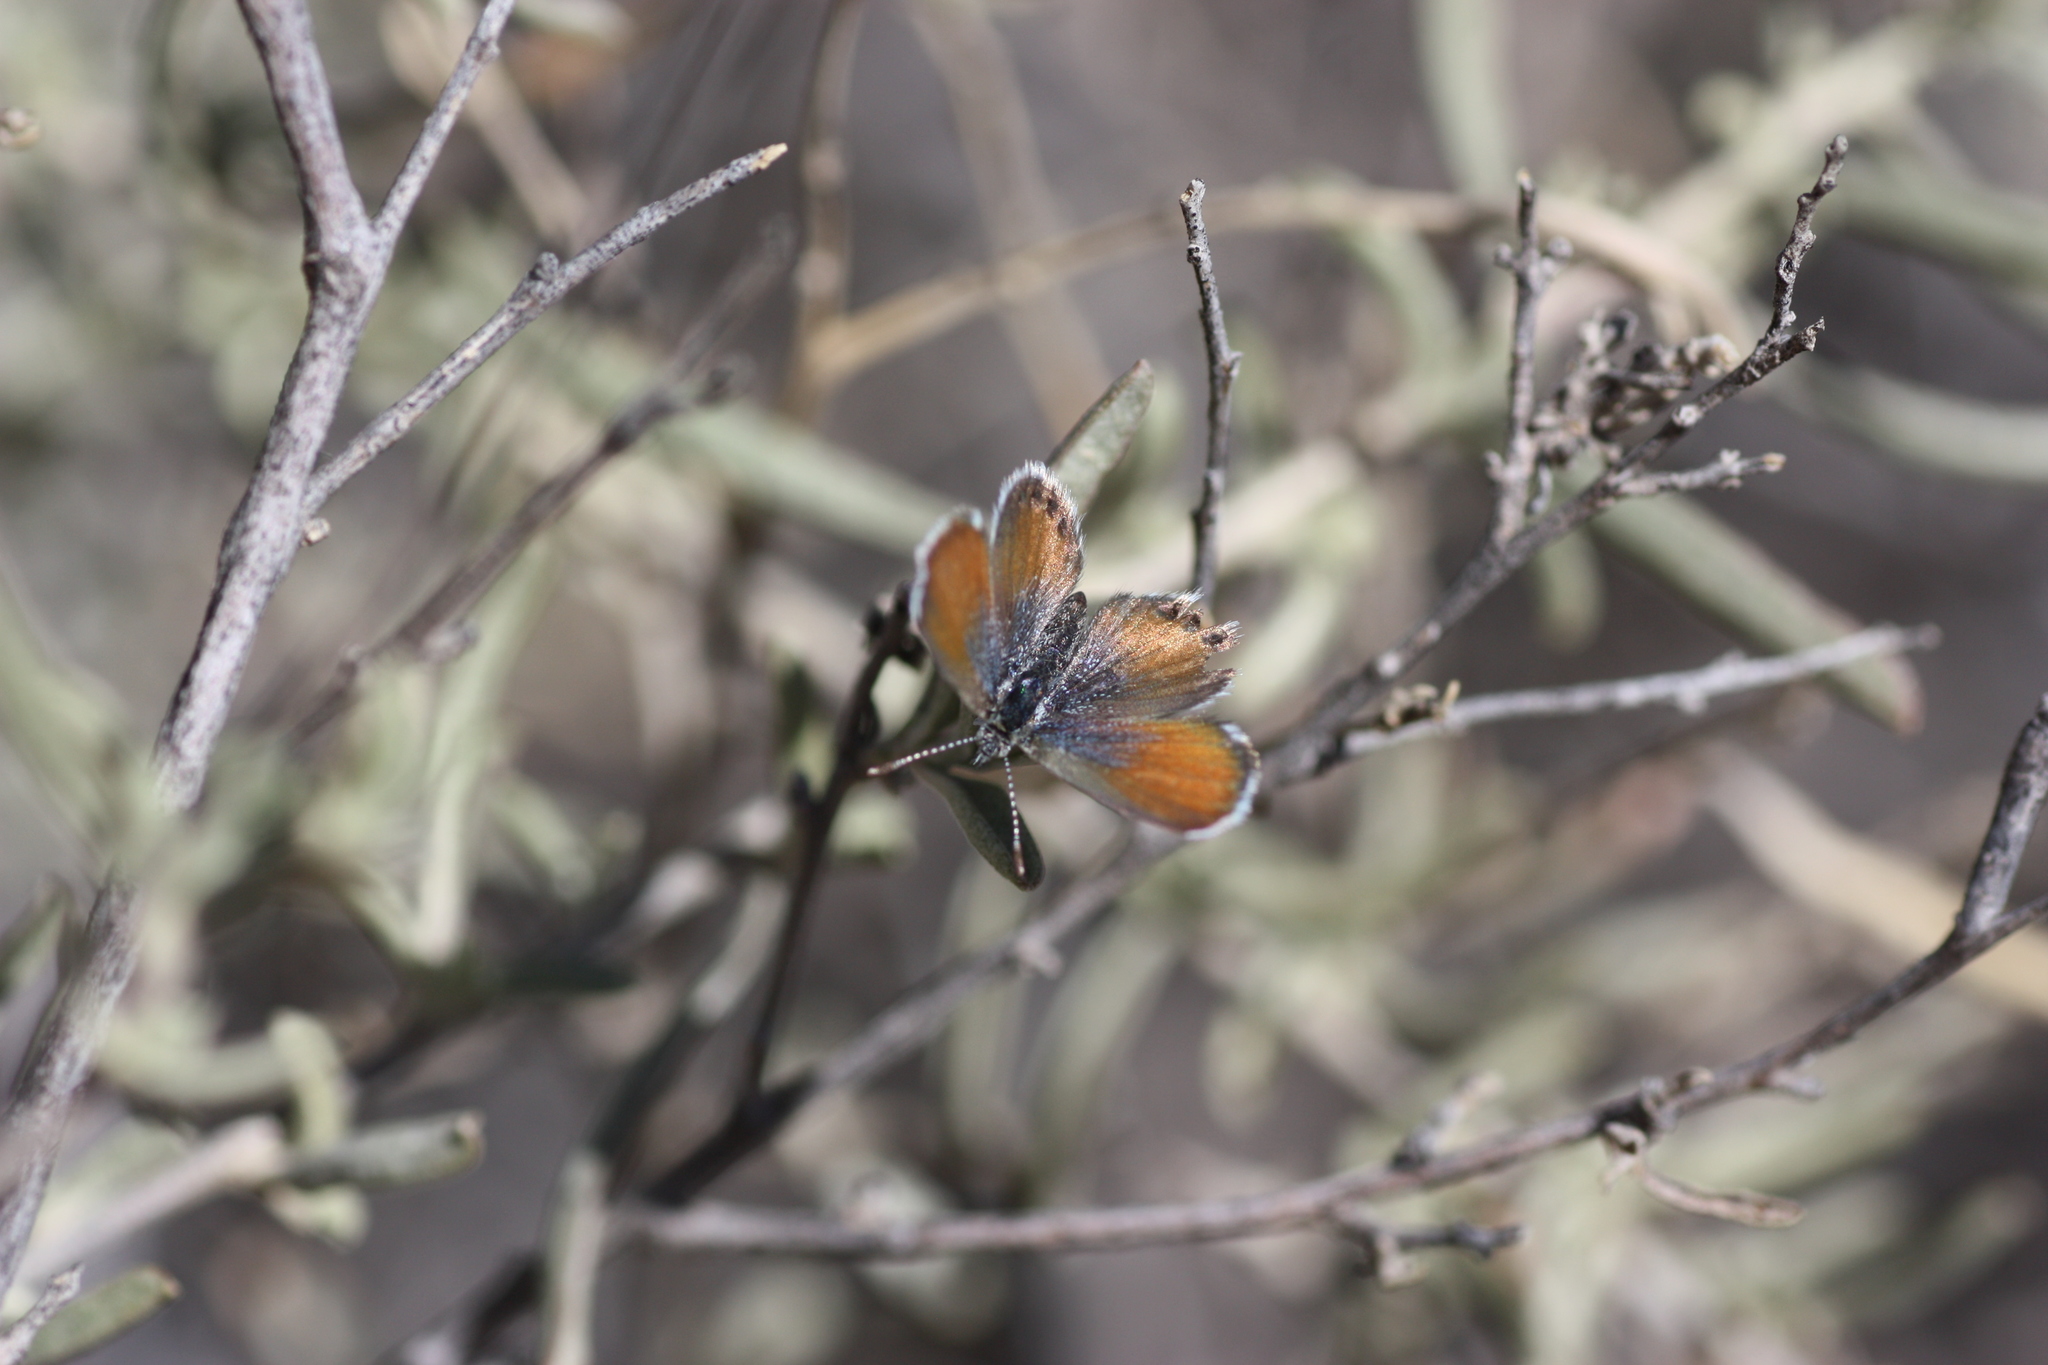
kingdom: Animalia
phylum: Arthropoda
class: Insecta
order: Lepidoptera
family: Lycaenidae
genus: Brephidium
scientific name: Brephidium exilis
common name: Pygmy blue
